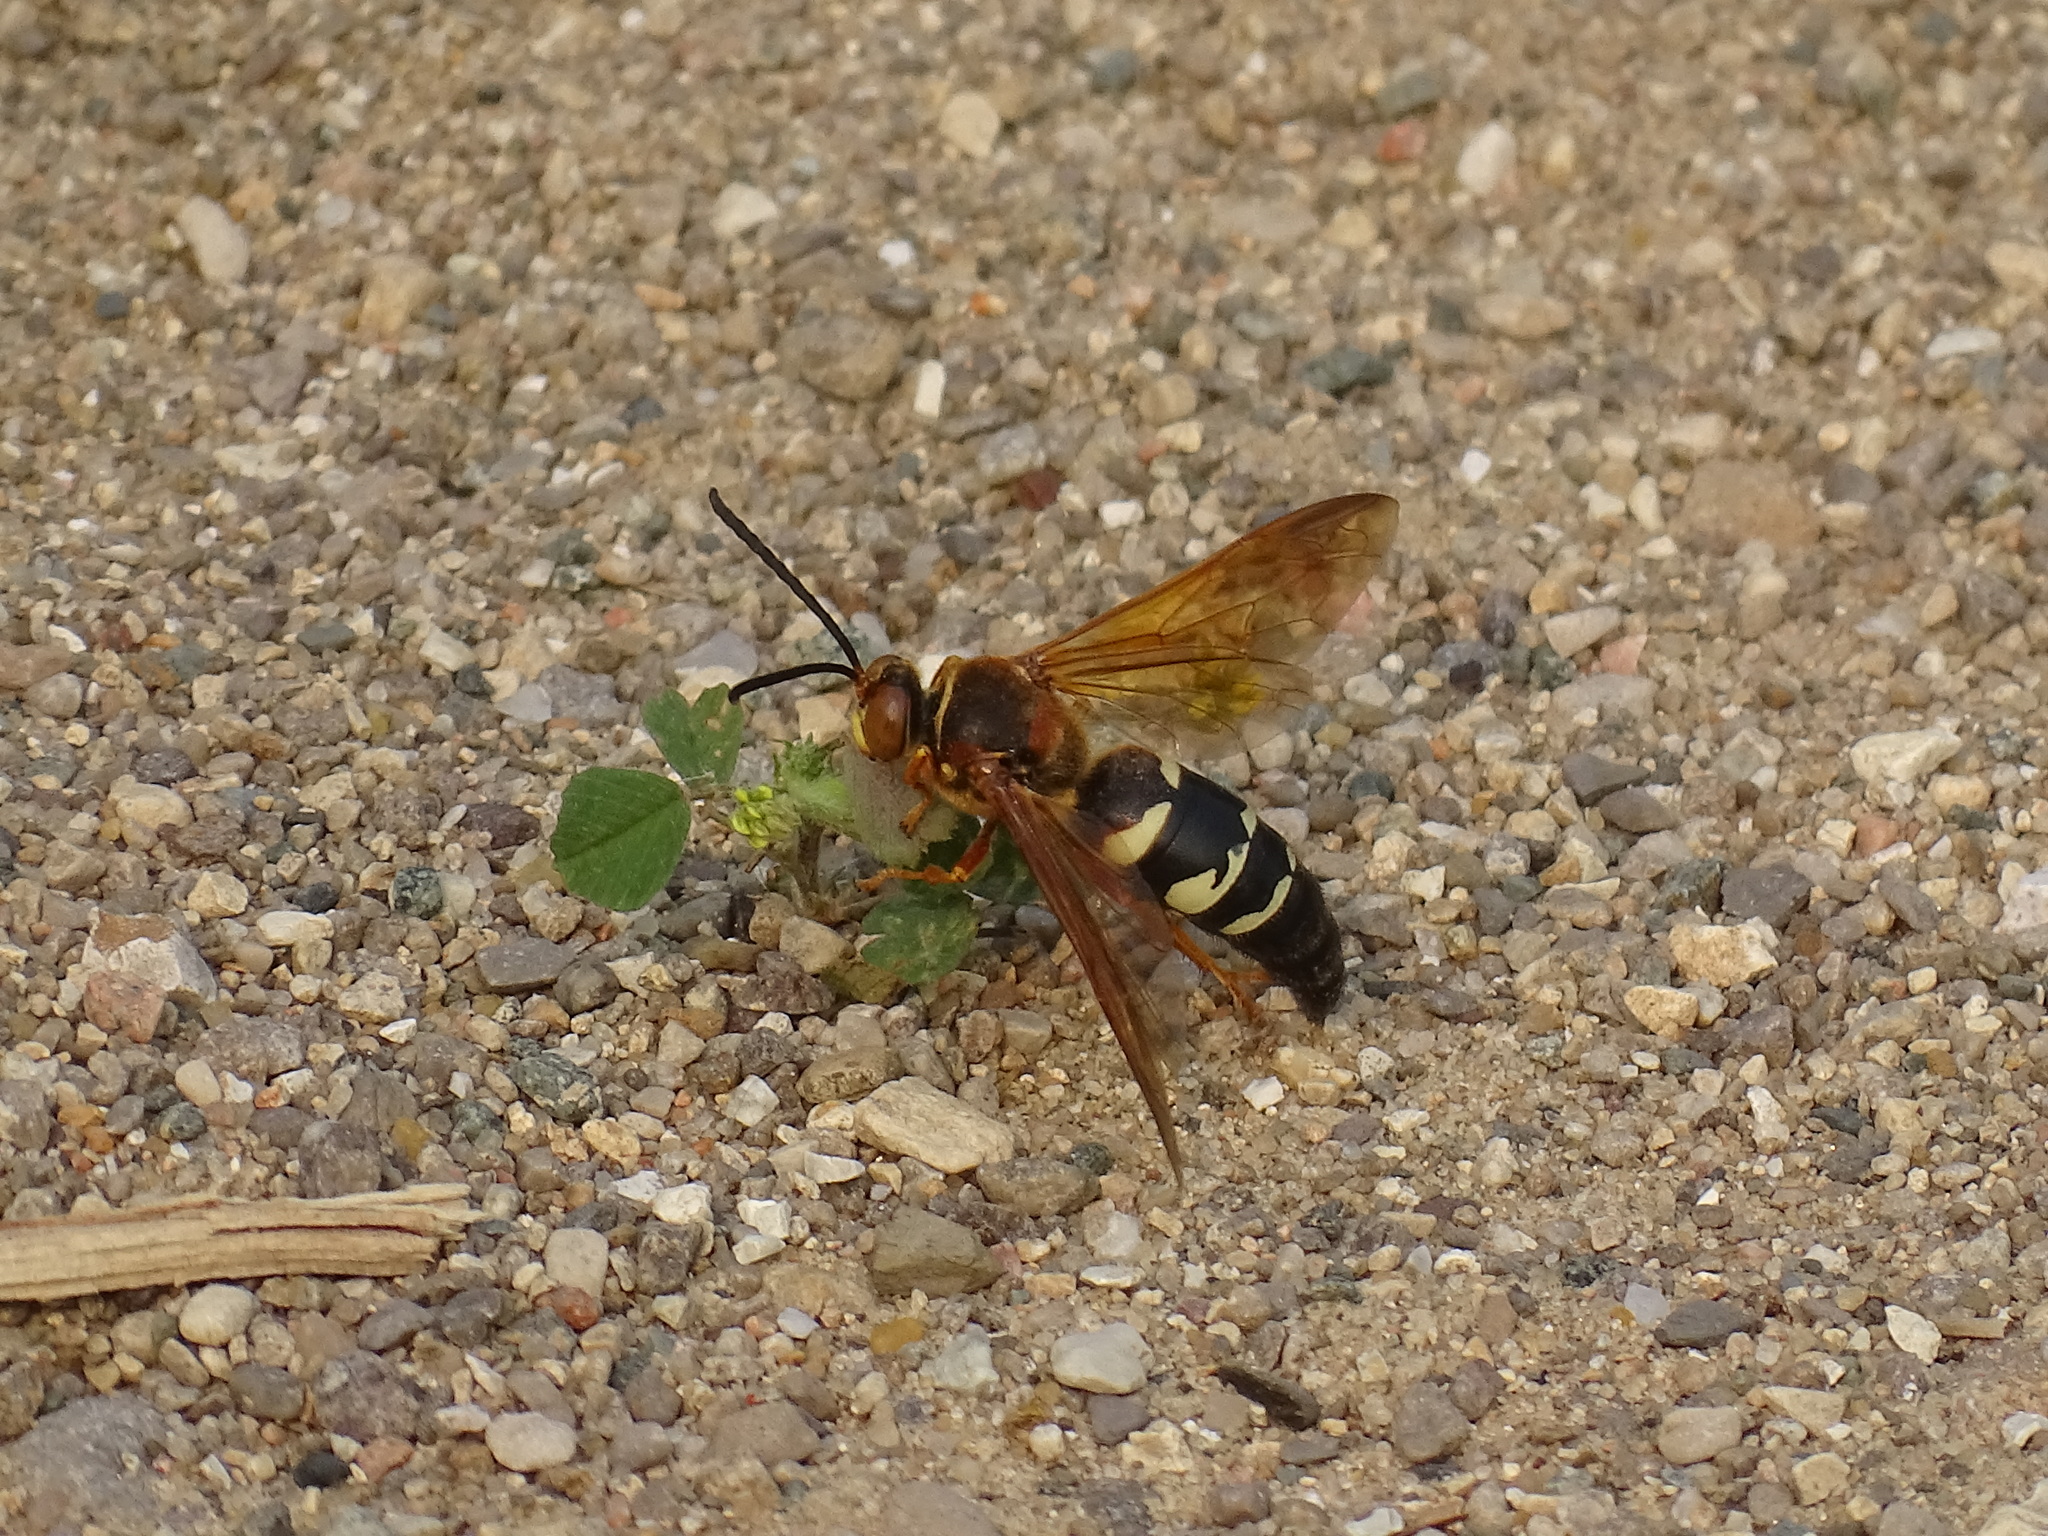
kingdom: Animalia
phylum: Arthropoda
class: Insecta
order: Hymenoptera
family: Crabronidae
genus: Sphecius
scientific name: Sphecius speciosus
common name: Cicada killer
